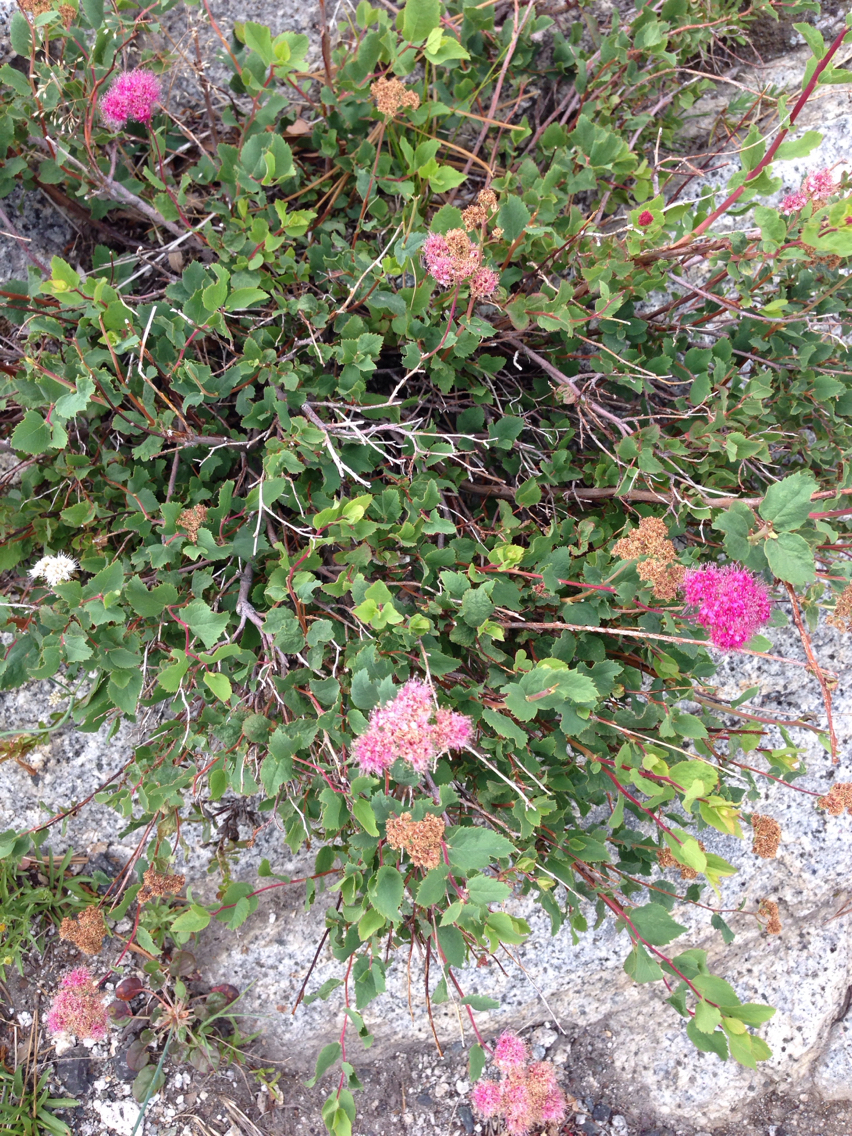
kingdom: Plantae
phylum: Tracheophyta
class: Magnoliopsida
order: Rosales
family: Rosaceae
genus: Spiraea
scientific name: Spiraea splendens
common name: Subalpine meadowsweet
